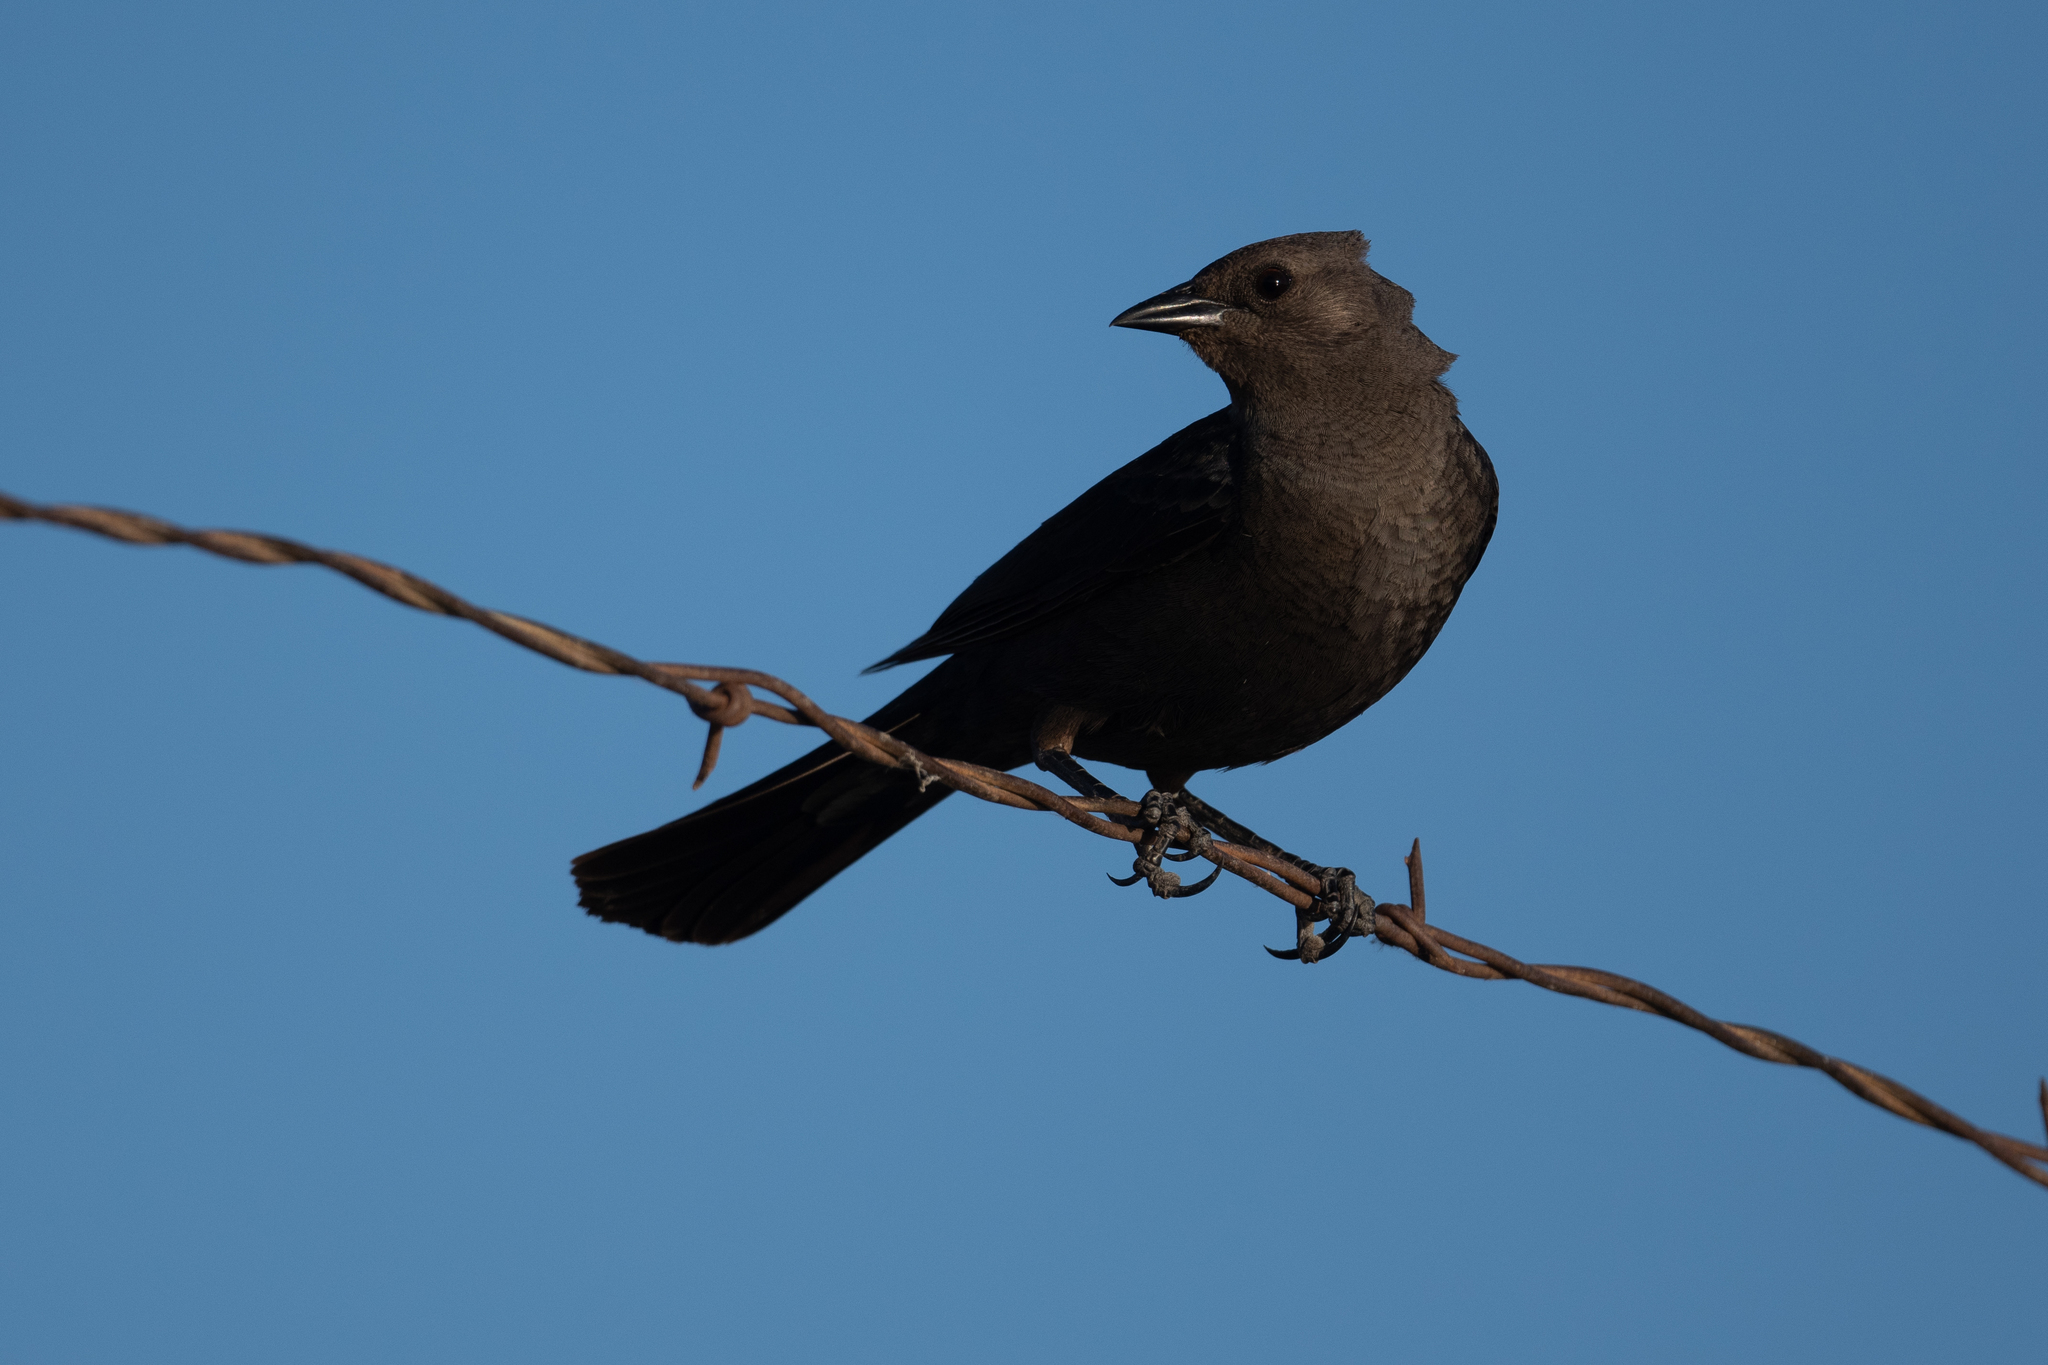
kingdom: Animalia
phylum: Chordata
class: Aves
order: Passeriformes
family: Icteridae
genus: Molothrus
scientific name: Molothrus ater
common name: Brown-headed cowbird
